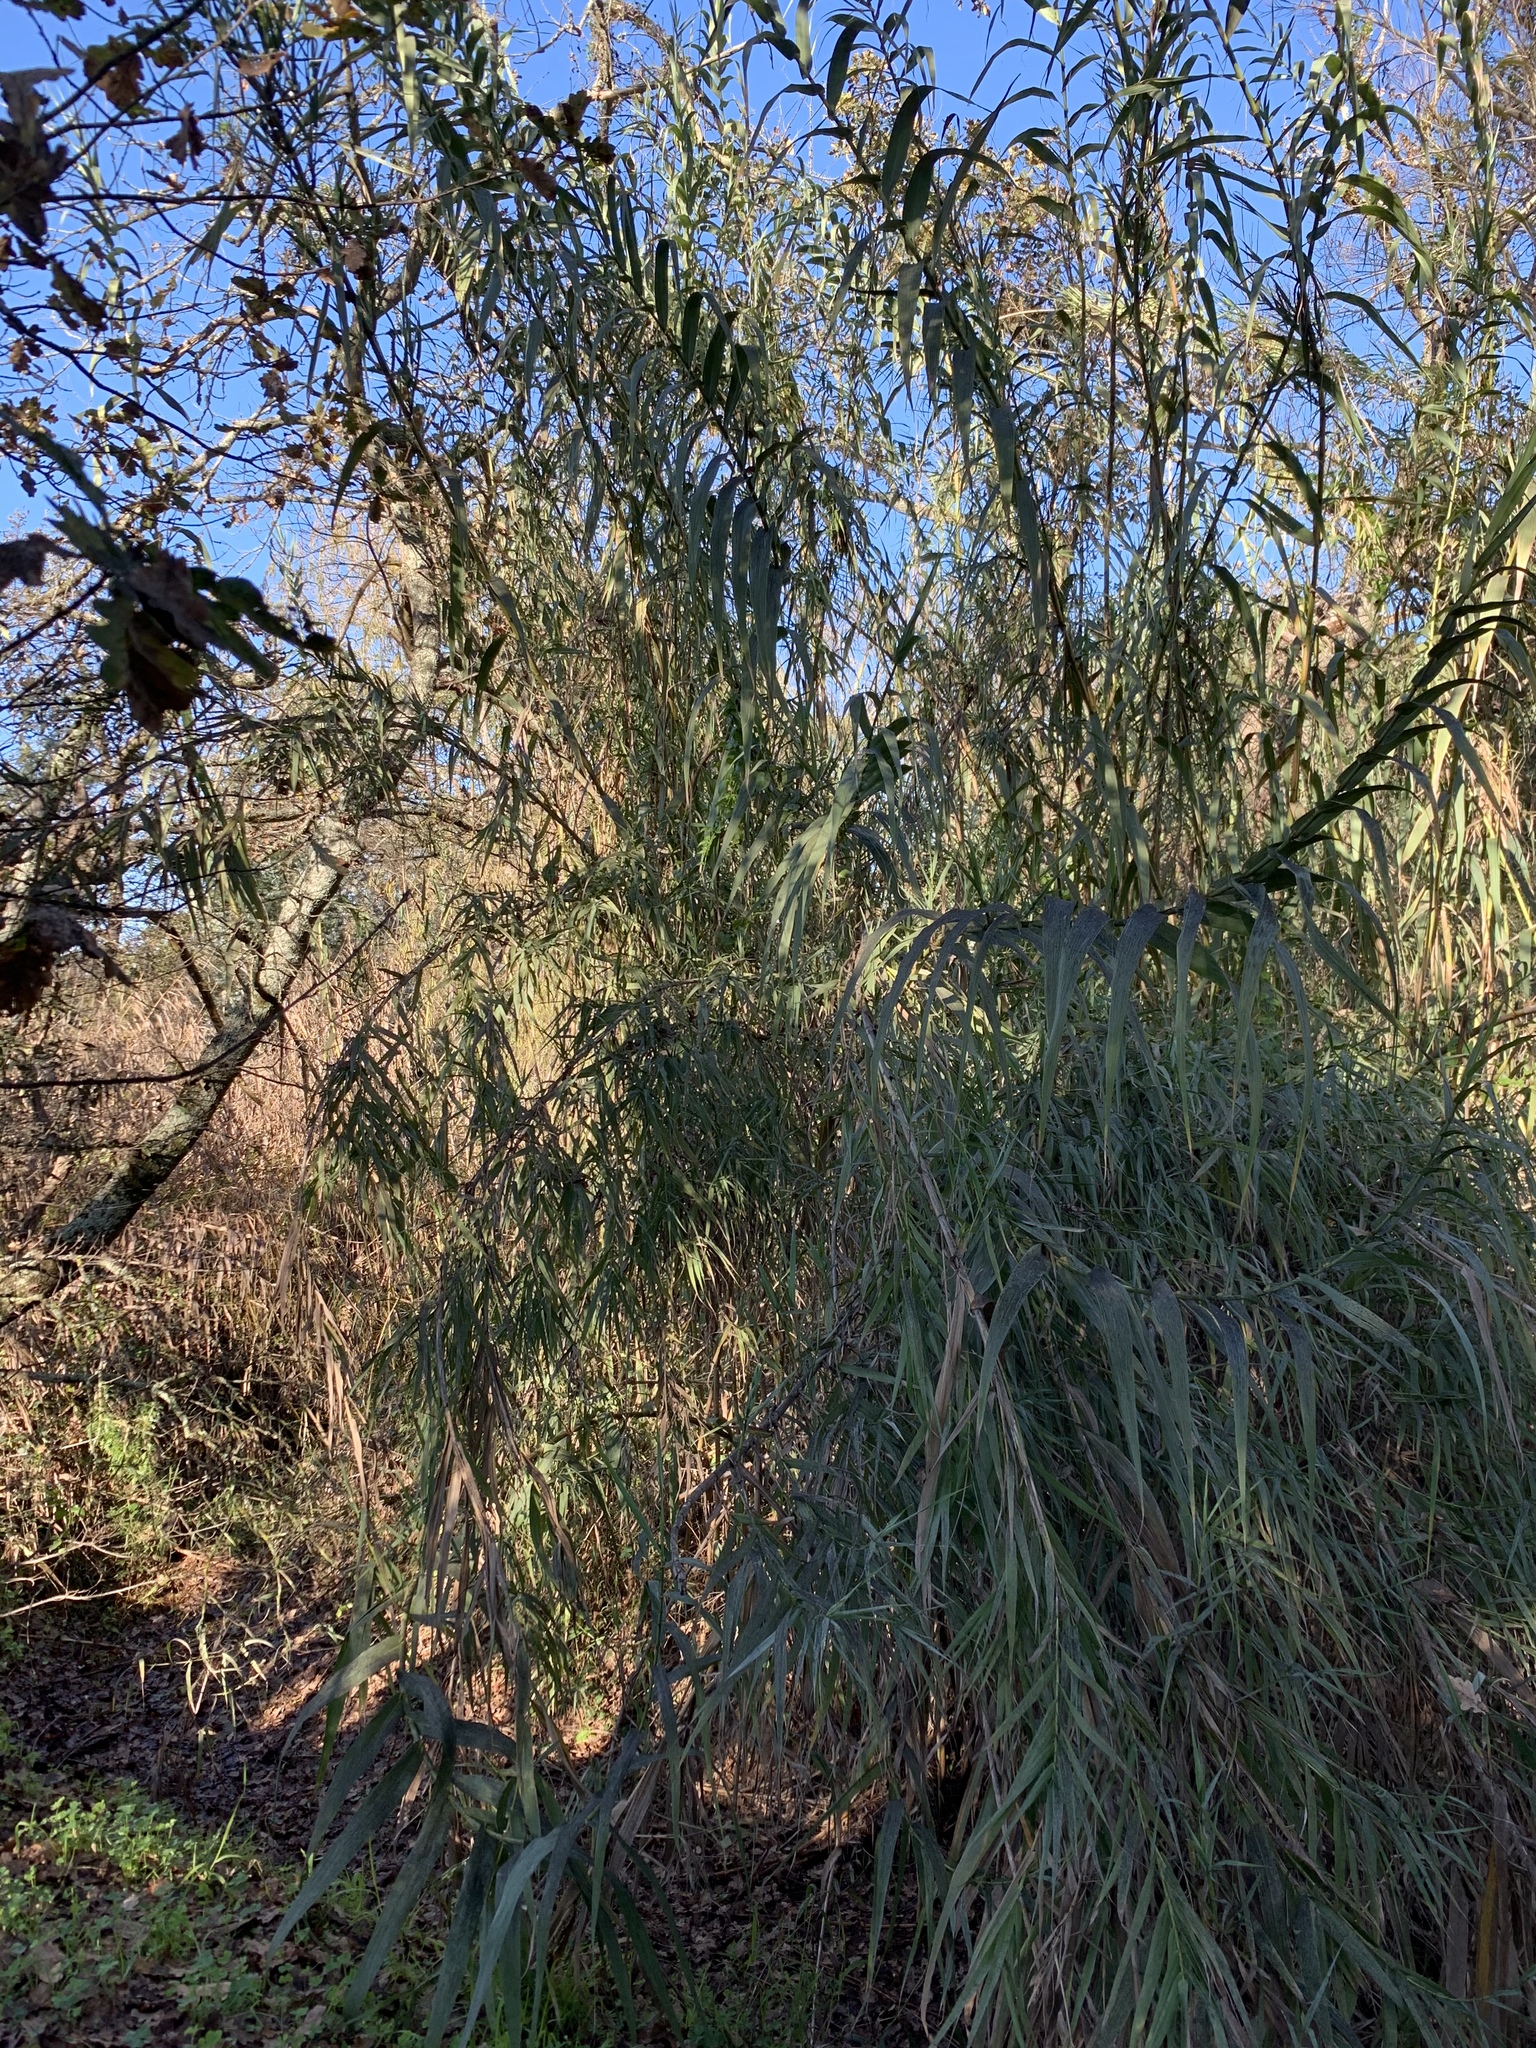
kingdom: Plantae
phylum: Tracheophyta
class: Liliopsida
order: Poales
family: Poaceae
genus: Arundo
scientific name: Arundo donax
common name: Giant reed
